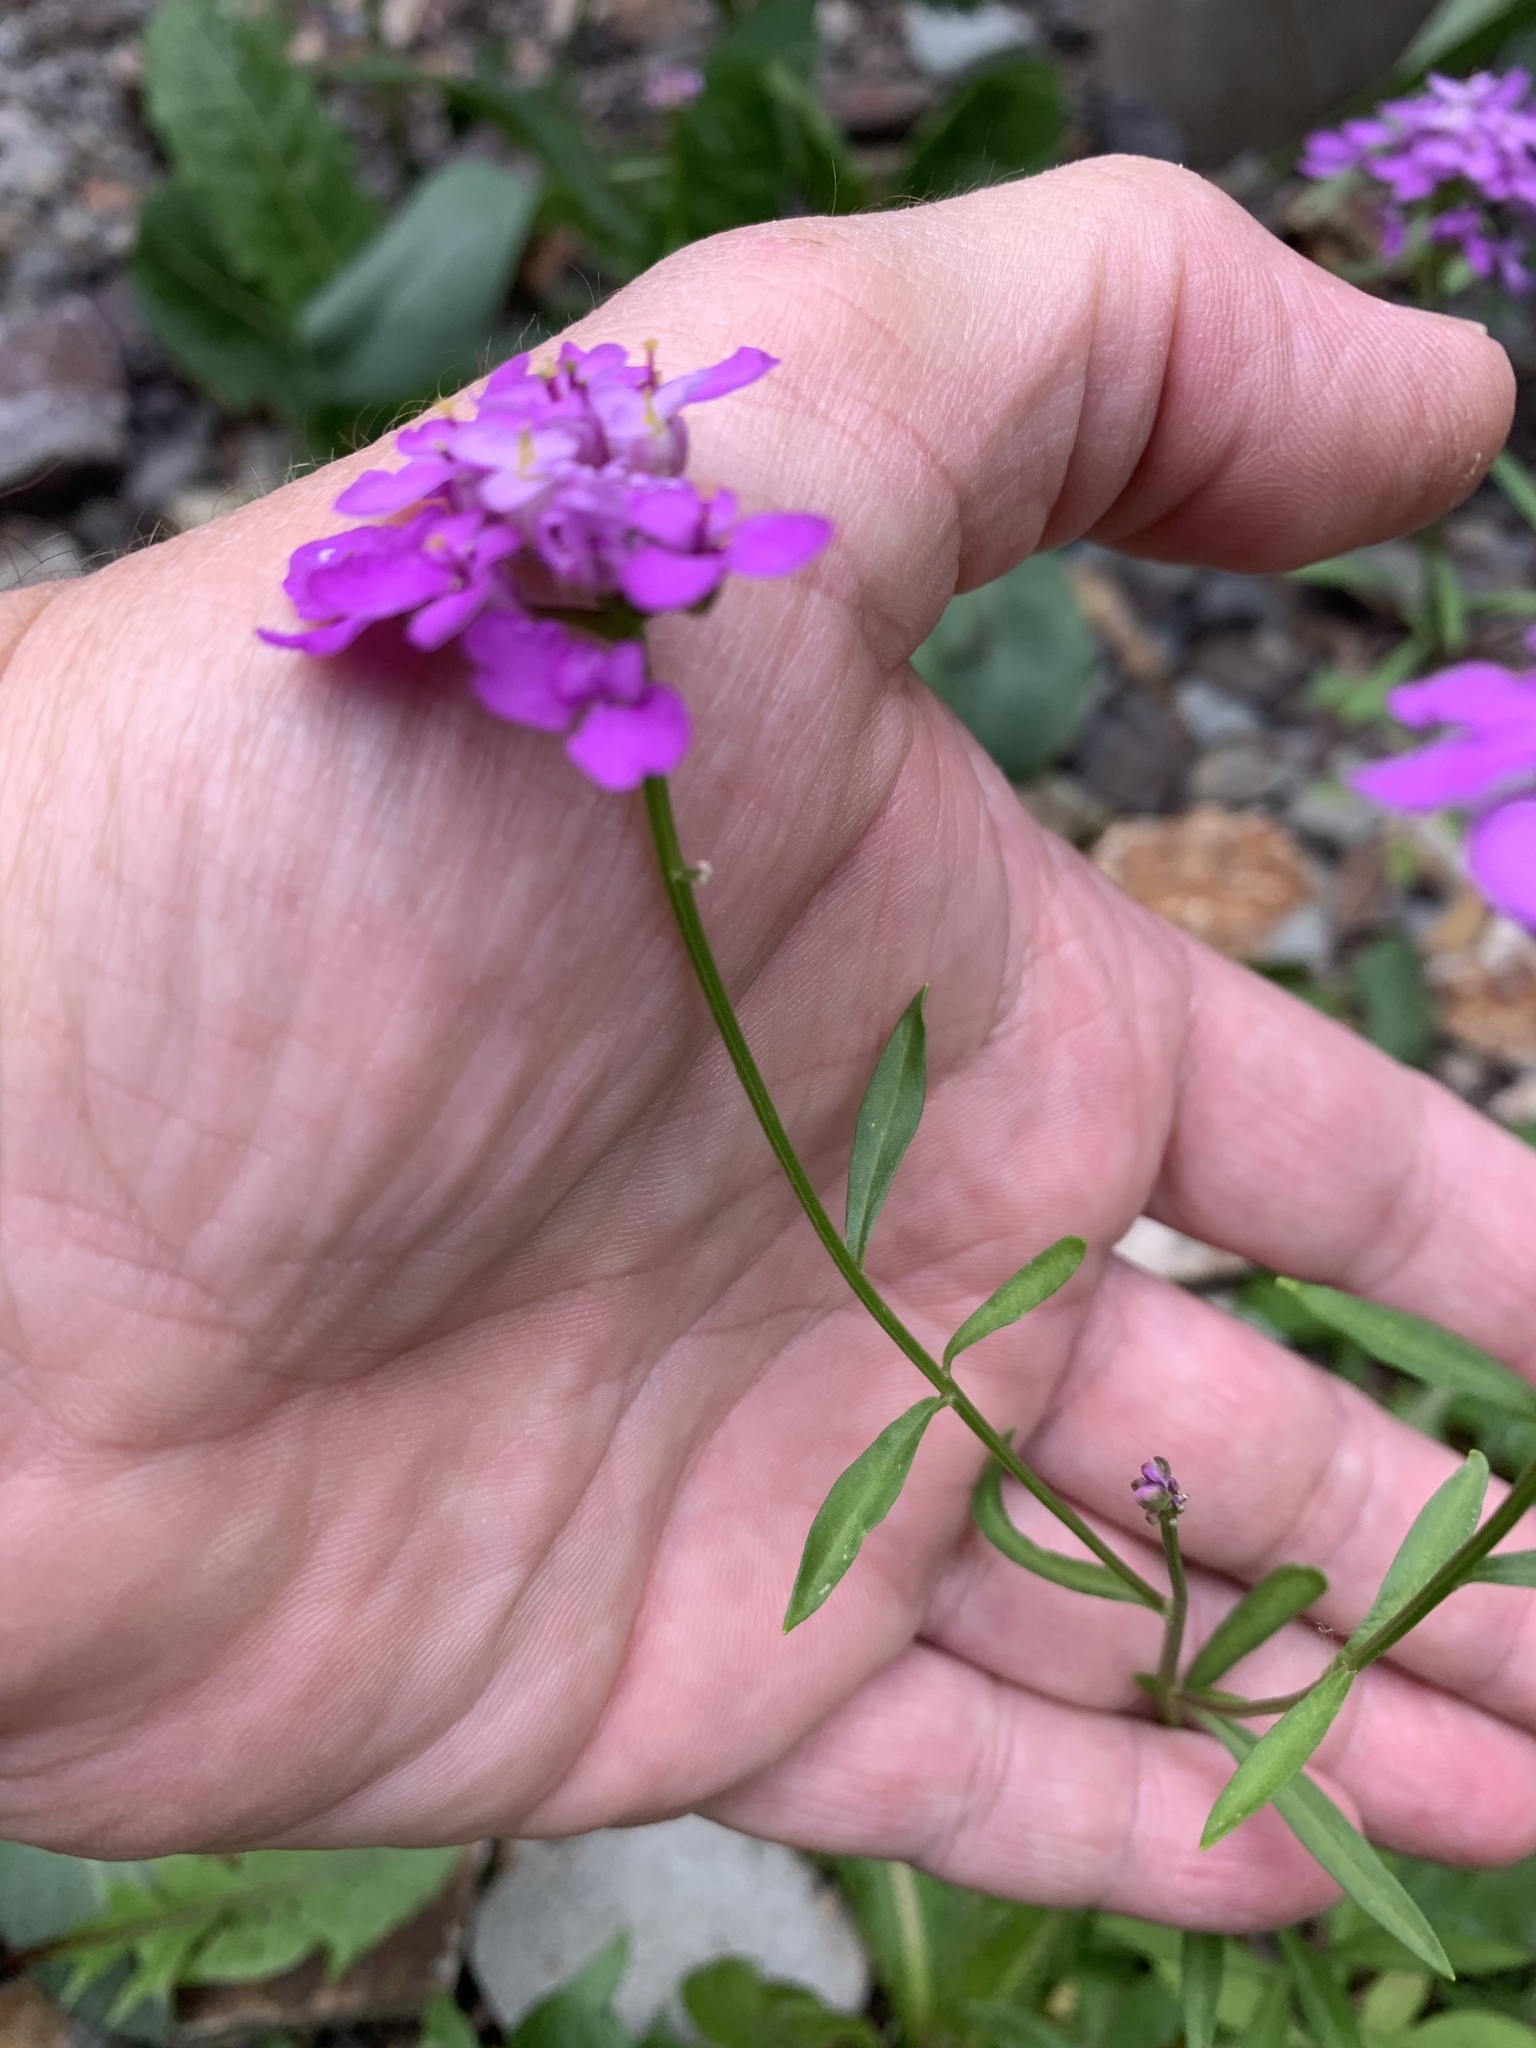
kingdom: Plantae
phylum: Tracheophyta
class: Magnoliopsida
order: Brassicales
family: Brassicaceae
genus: Erysimum
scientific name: Erysimum capitatum
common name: Western wallflower
